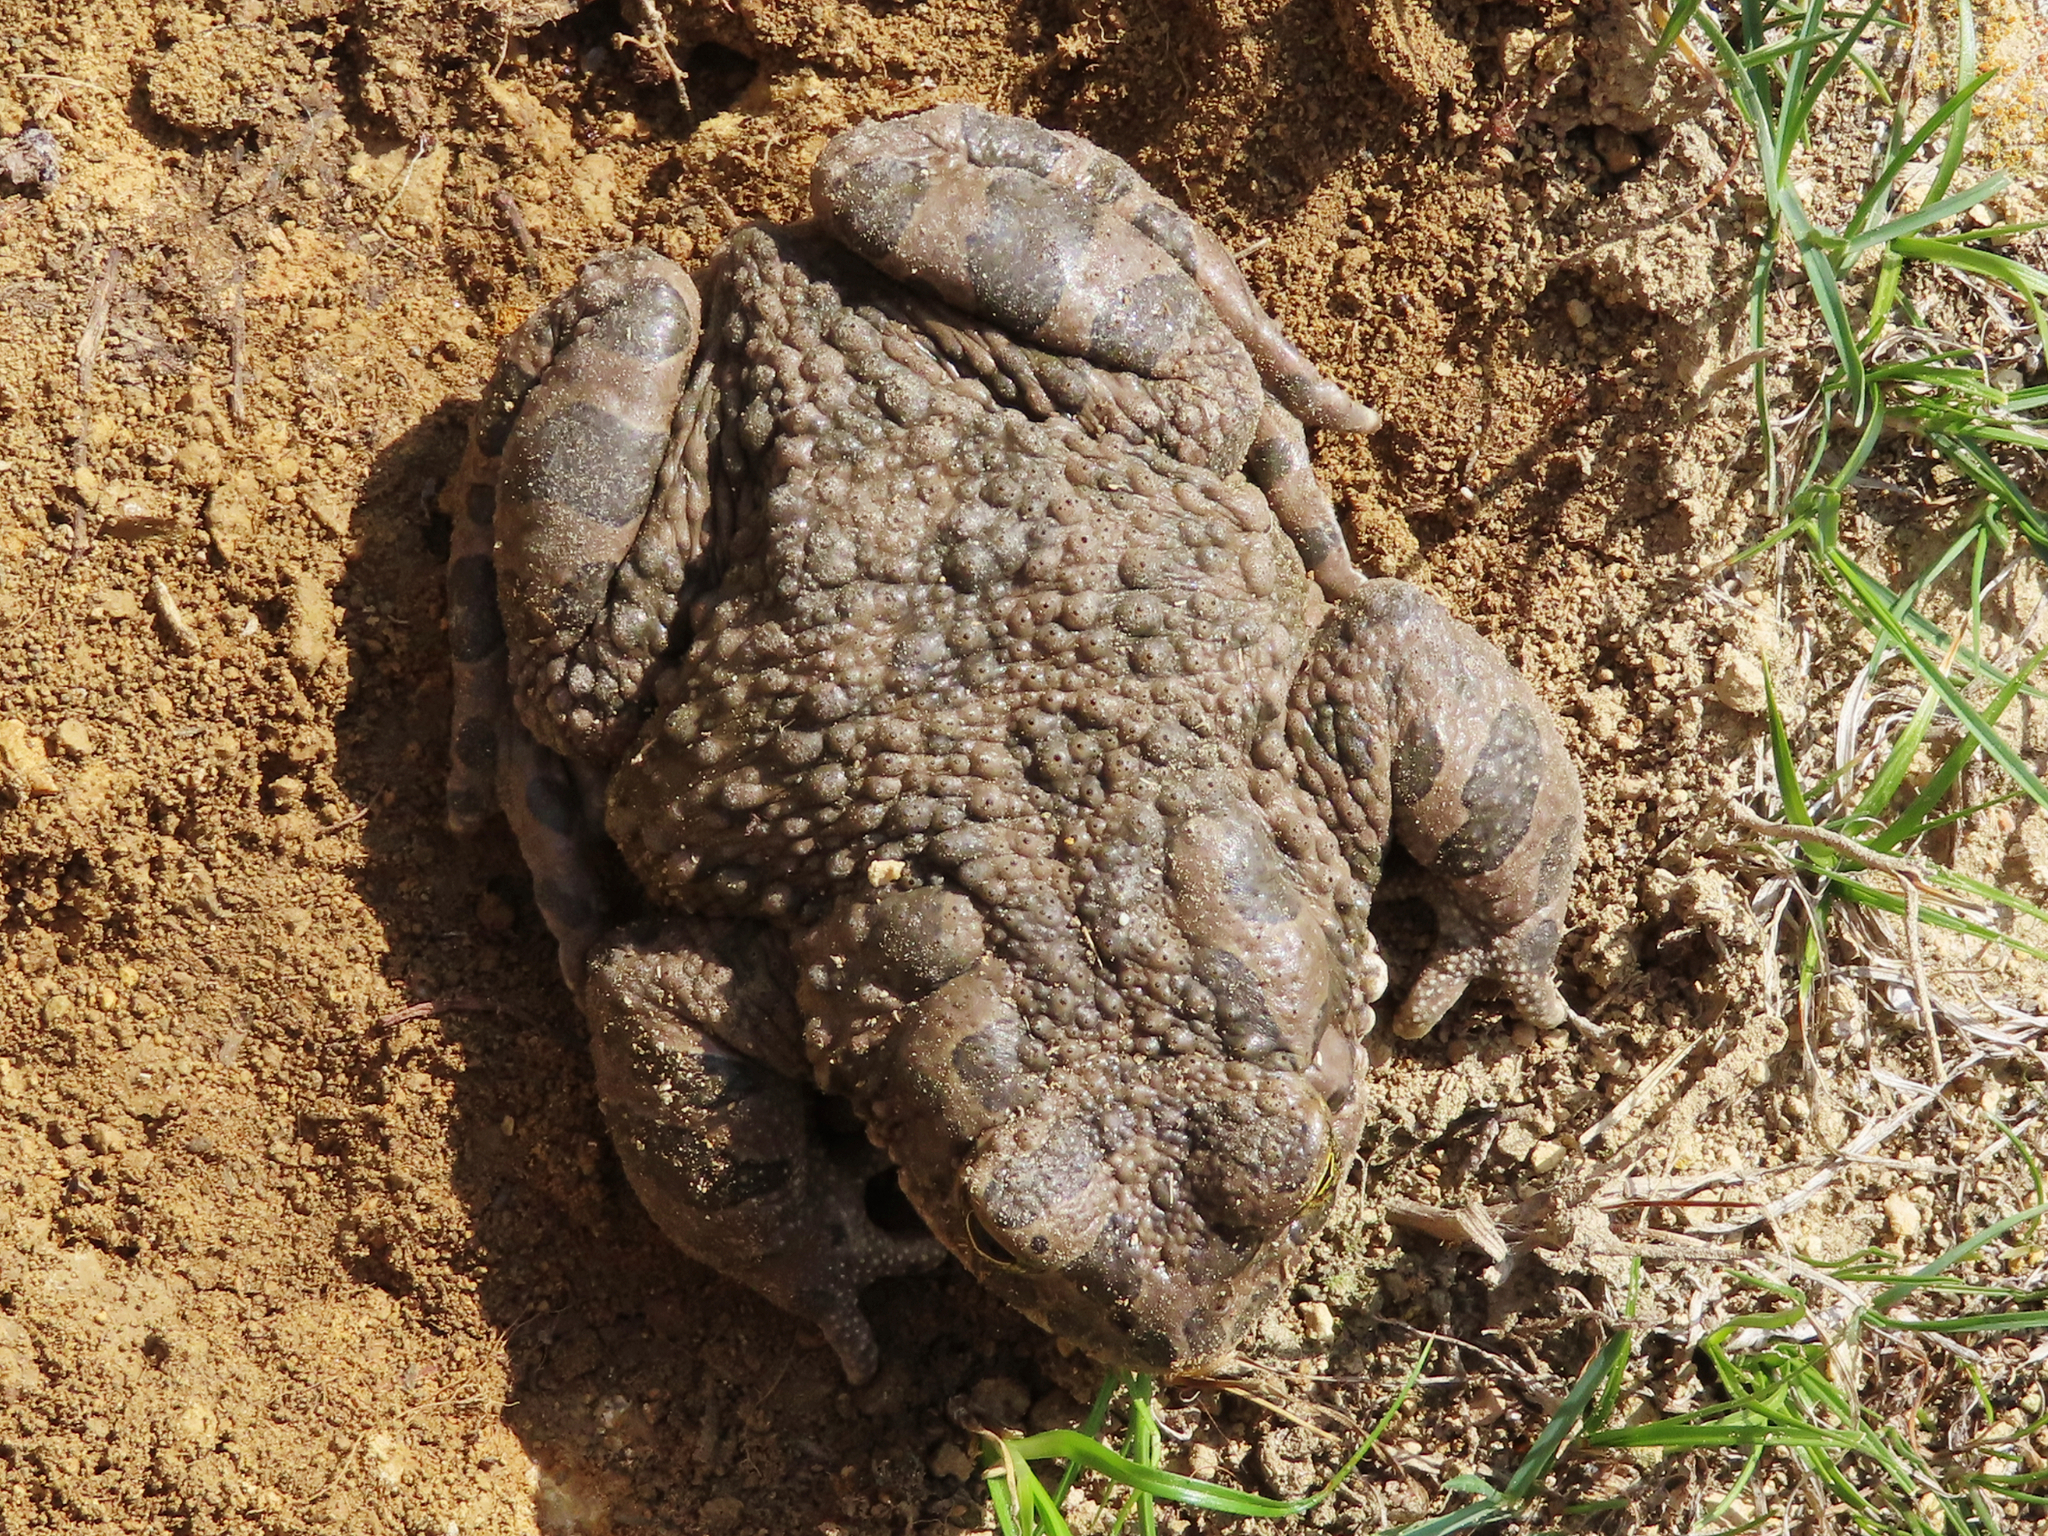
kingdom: Animalia
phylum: Chordata
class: Amphibia
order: Anura
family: Bufonidae
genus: Bufotes
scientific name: Bufotes viridis
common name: European green toad
